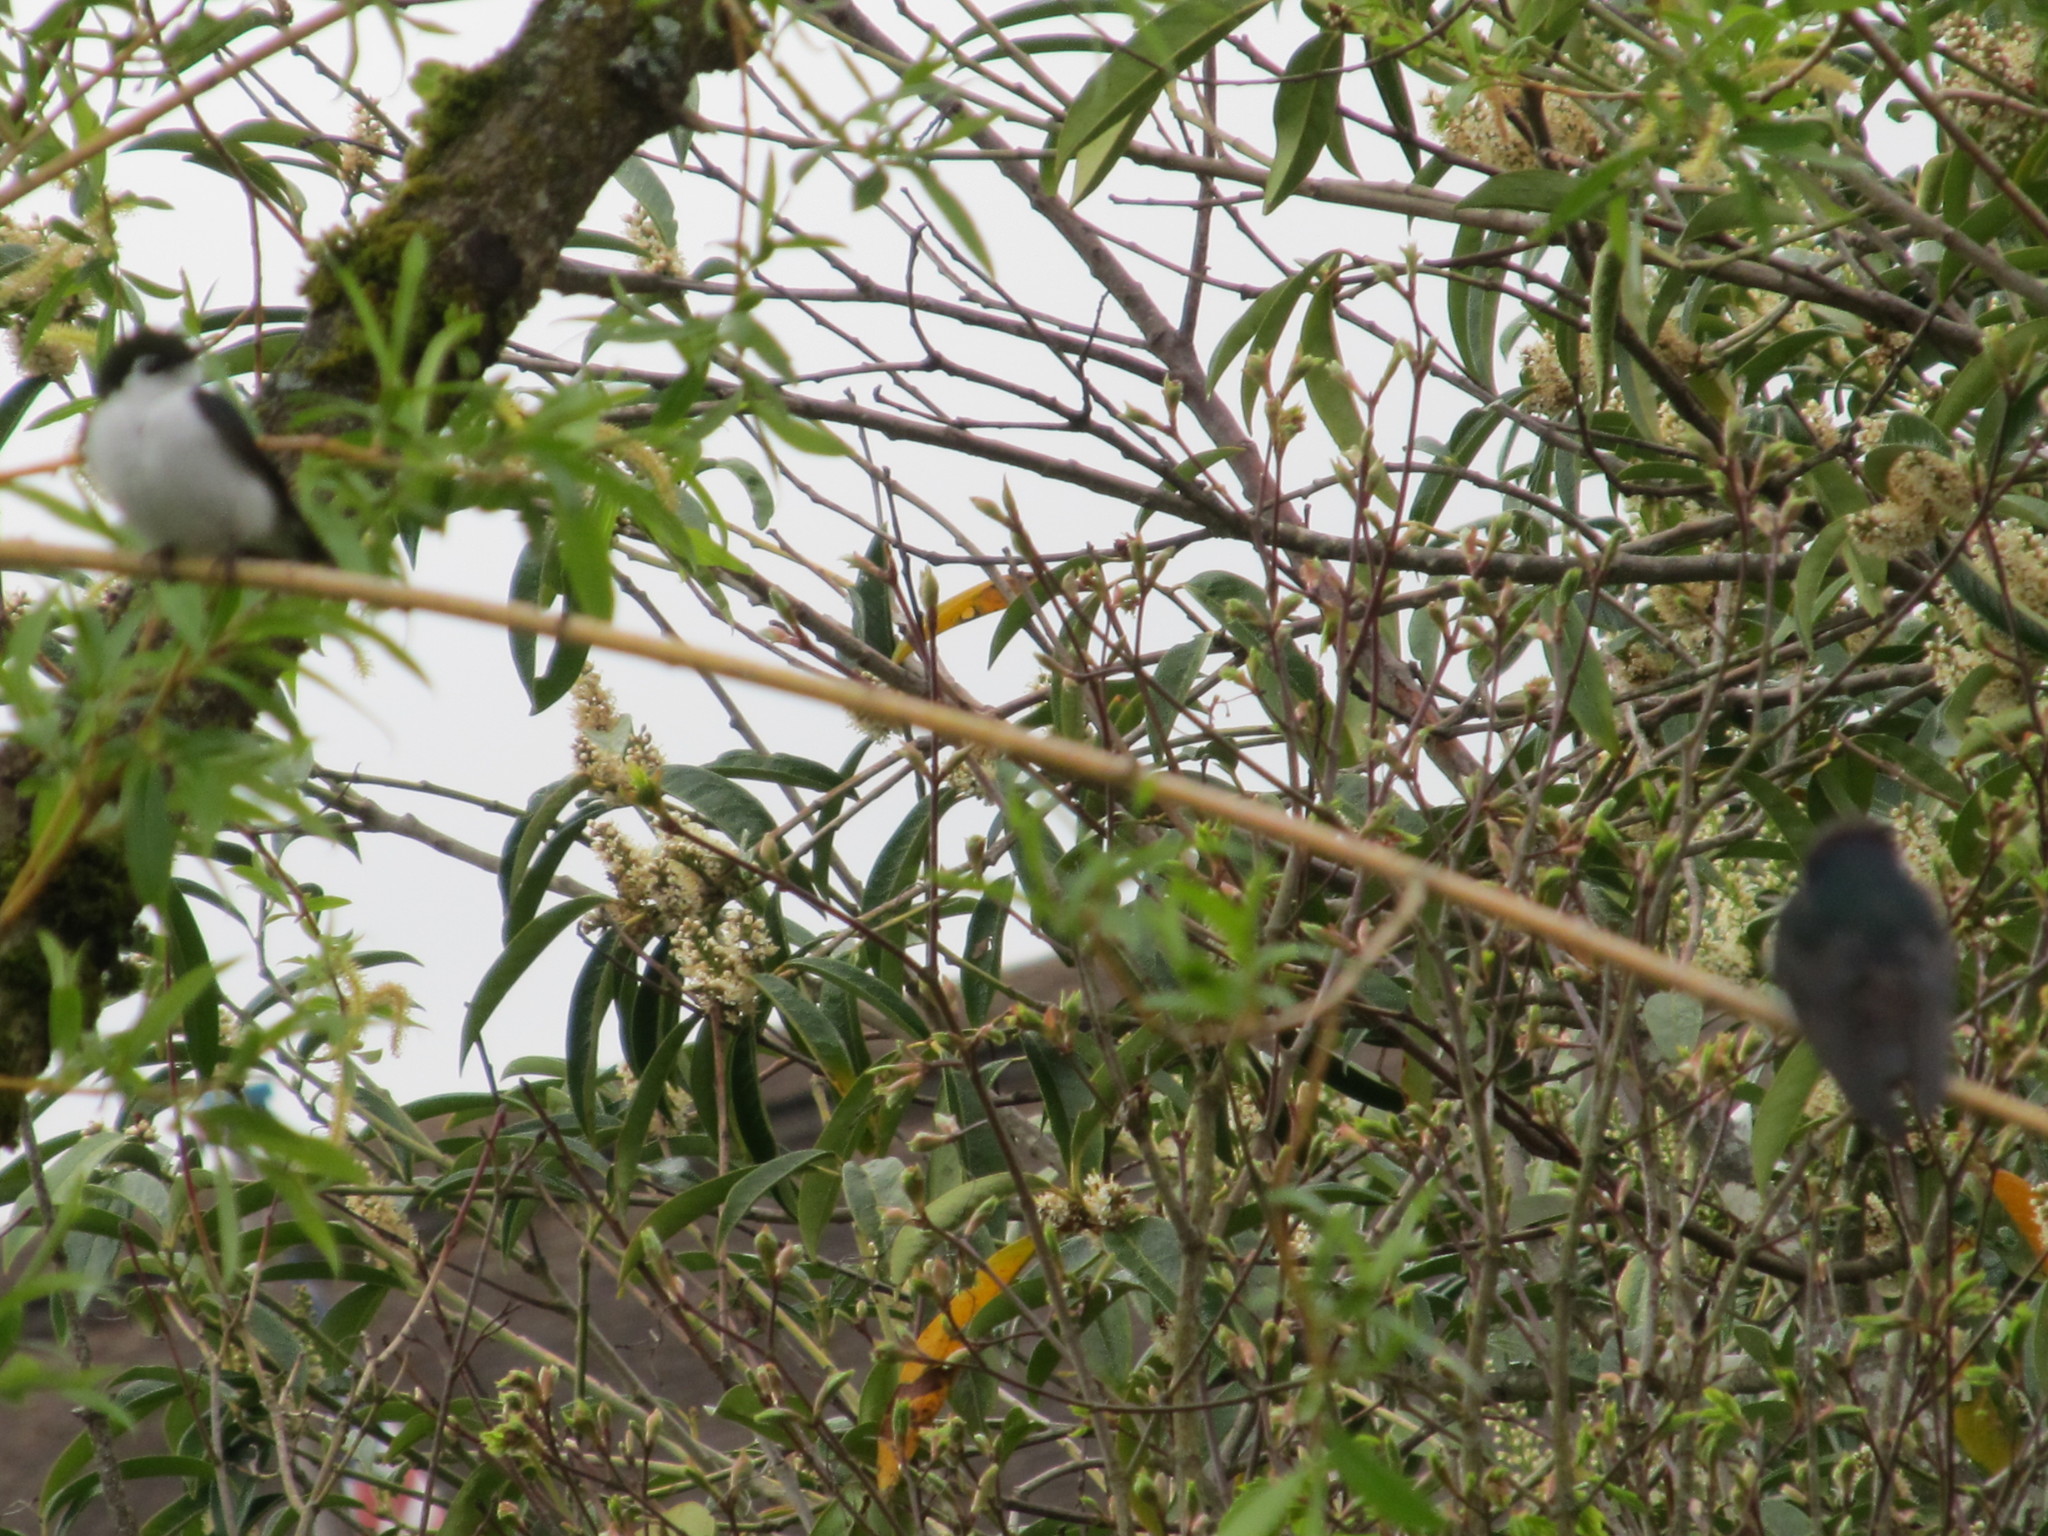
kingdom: Animalia
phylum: Chordata
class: Aves
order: Passeriformes
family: Hirundinidae
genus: Tachycineta
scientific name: Tachycineta thalassina
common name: Violet-green swallow
